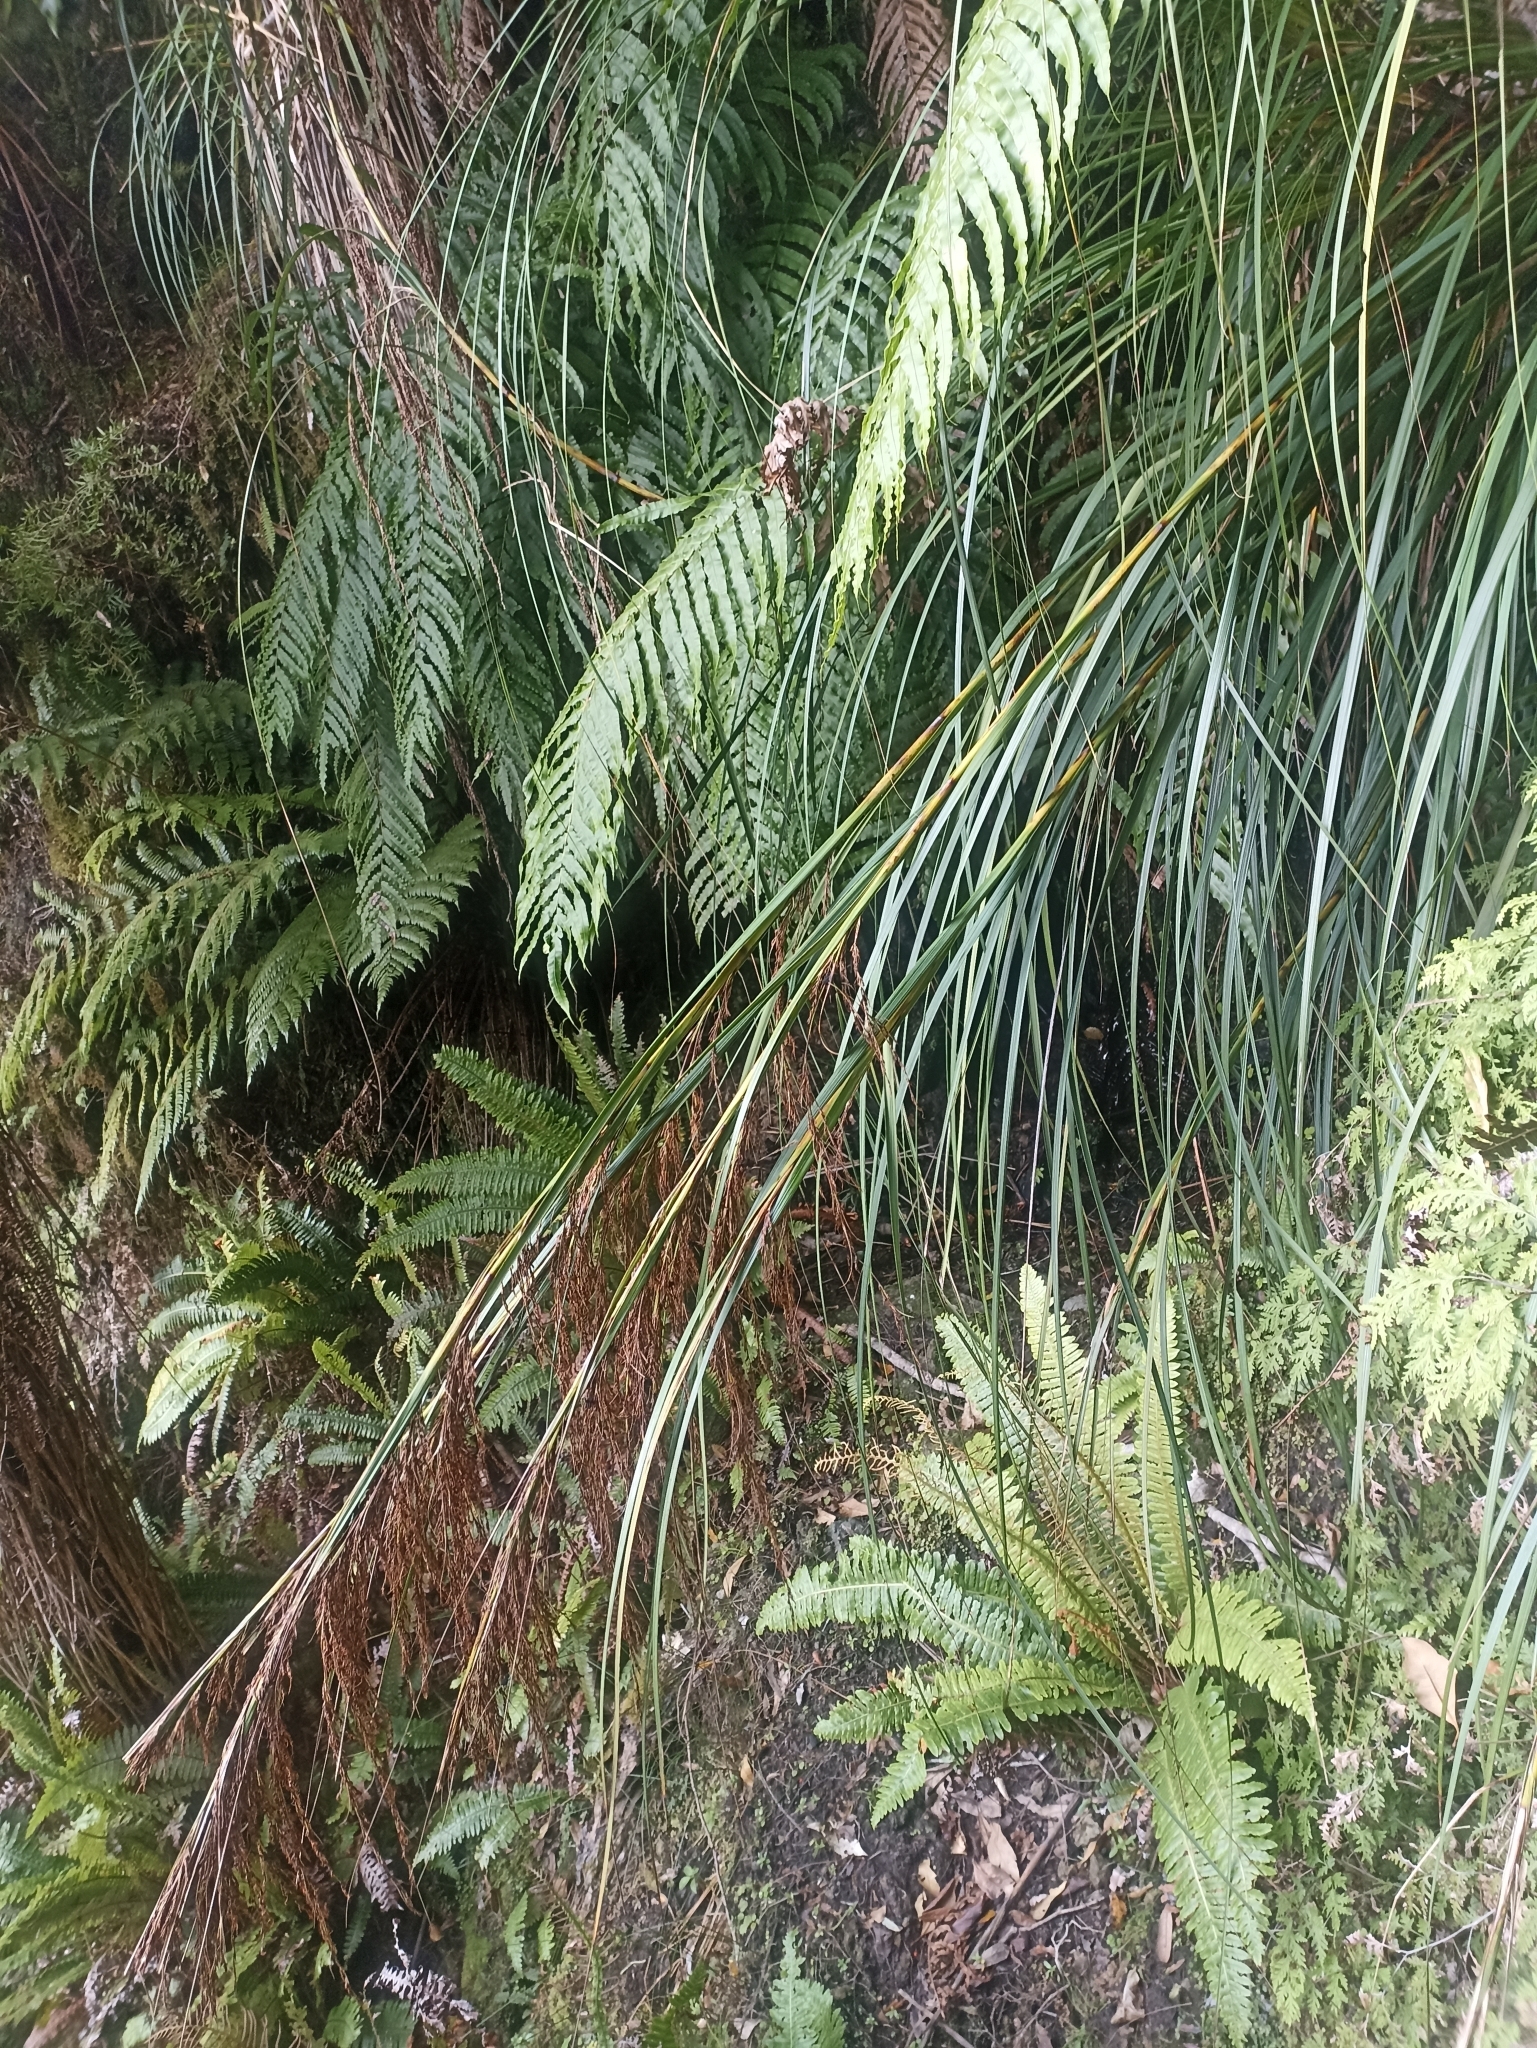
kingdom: Plantae
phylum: Tracheophyta
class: Liliopsida
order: Poales
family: Cyperaceae
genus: Gahnia
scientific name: Gahnia setifolia
